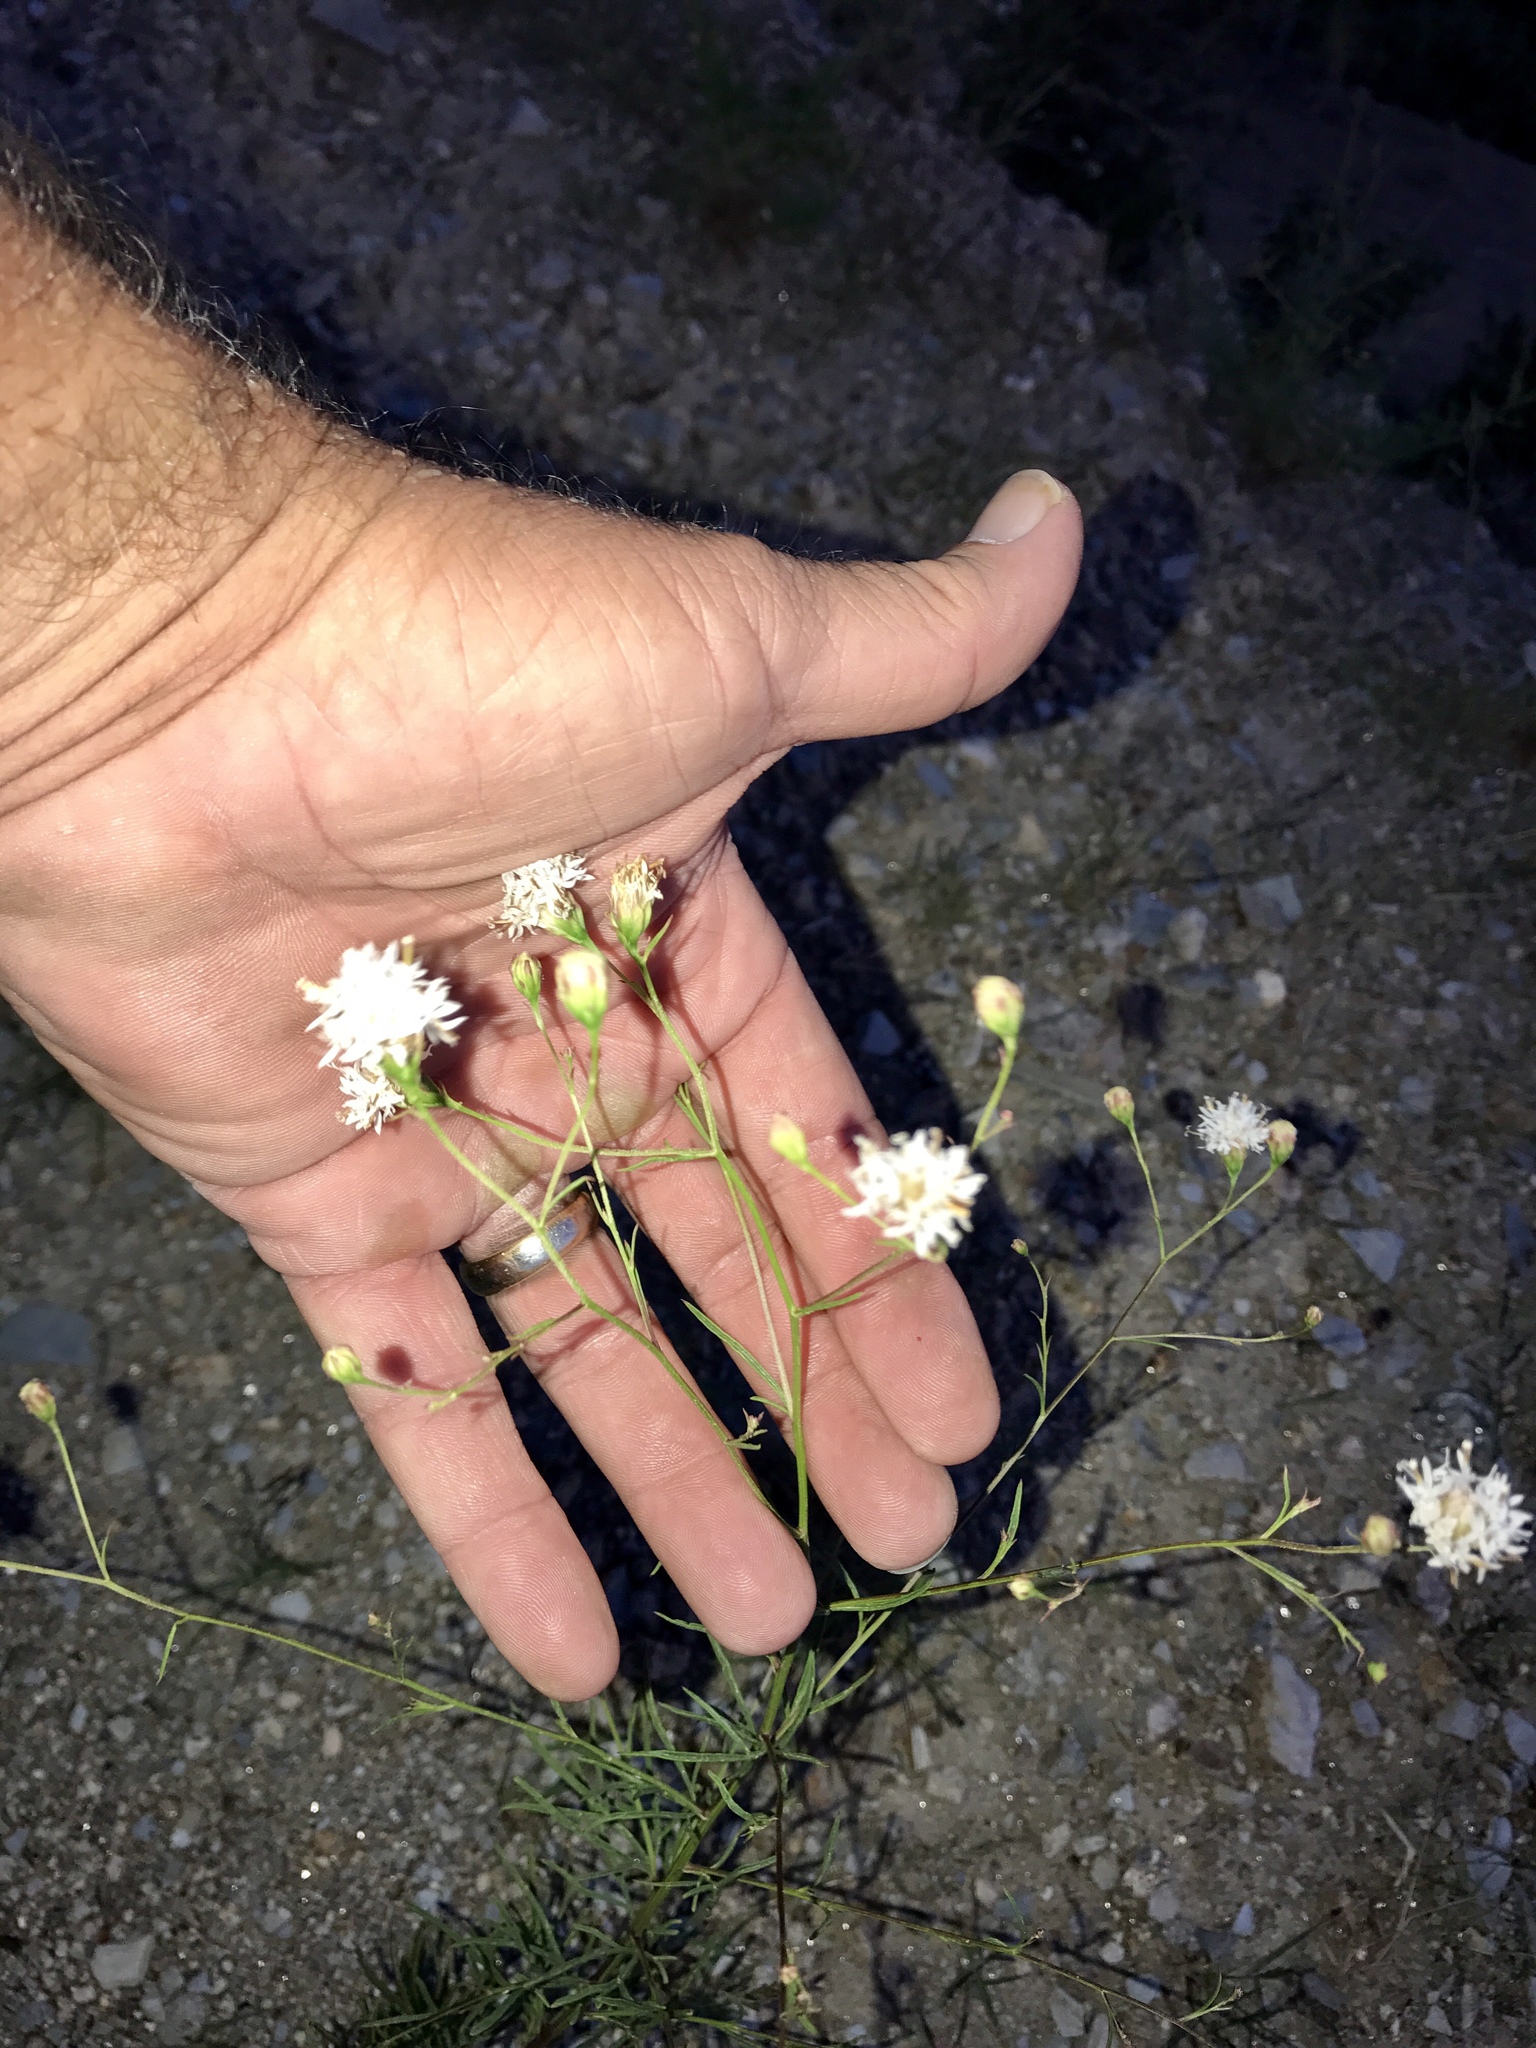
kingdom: Plantae
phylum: Tracheophyta
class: Magnoliopsida
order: Asterales
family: Asteraceae
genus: Hymenothrix
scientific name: Hymenothrix loomisii
